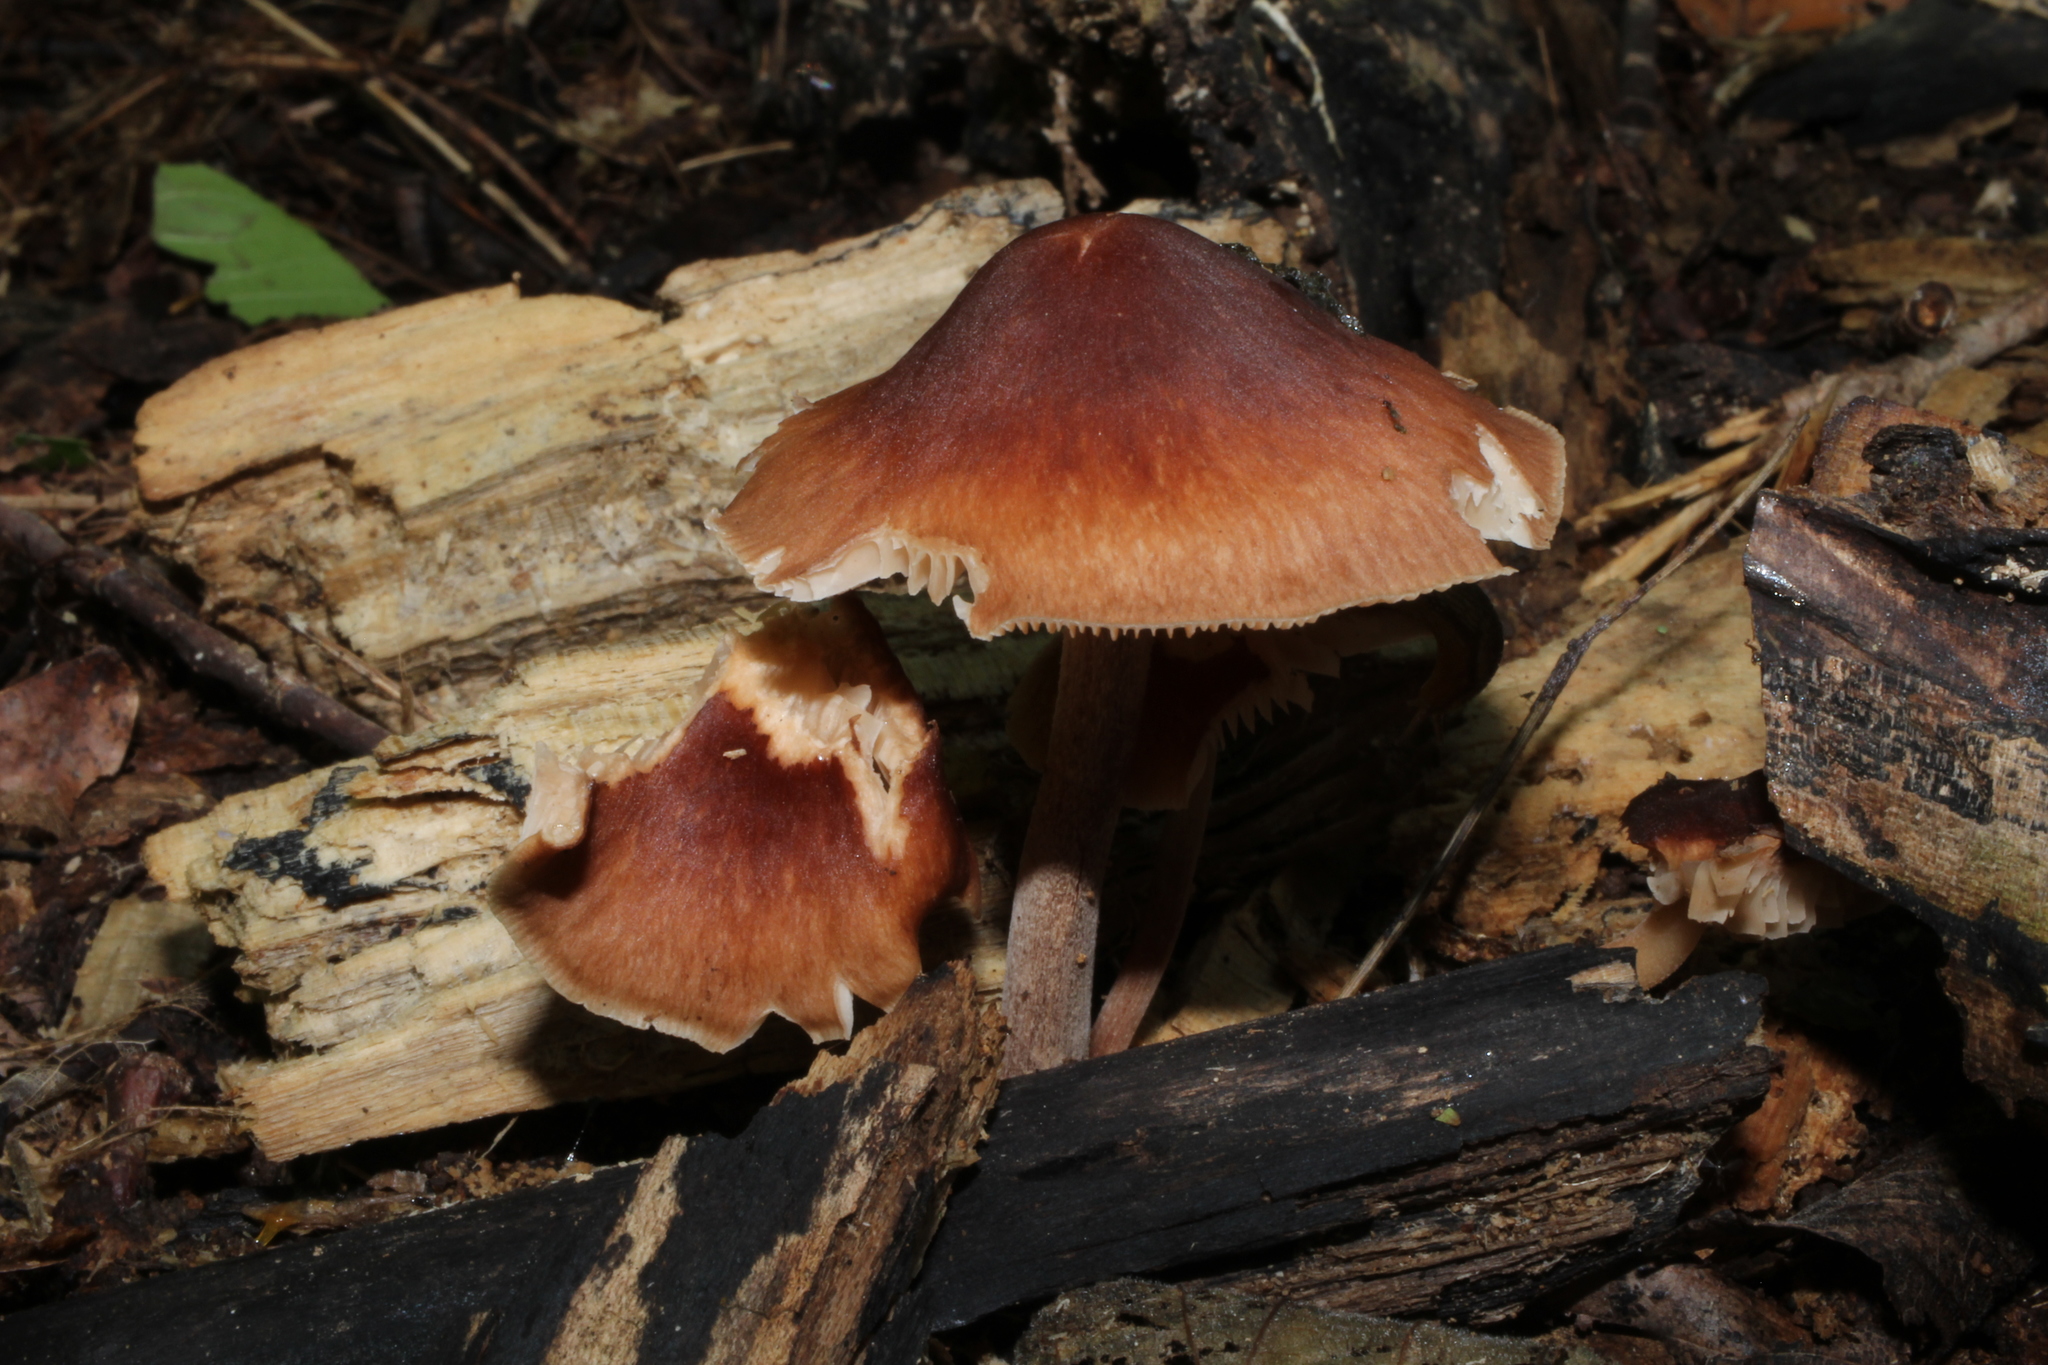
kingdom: Fungi
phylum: Basidiomycota
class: Agaricomycetes
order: Agaricales
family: Omphalotaceae
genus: Collybiopsis
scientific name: Collybiopsis luxurians
